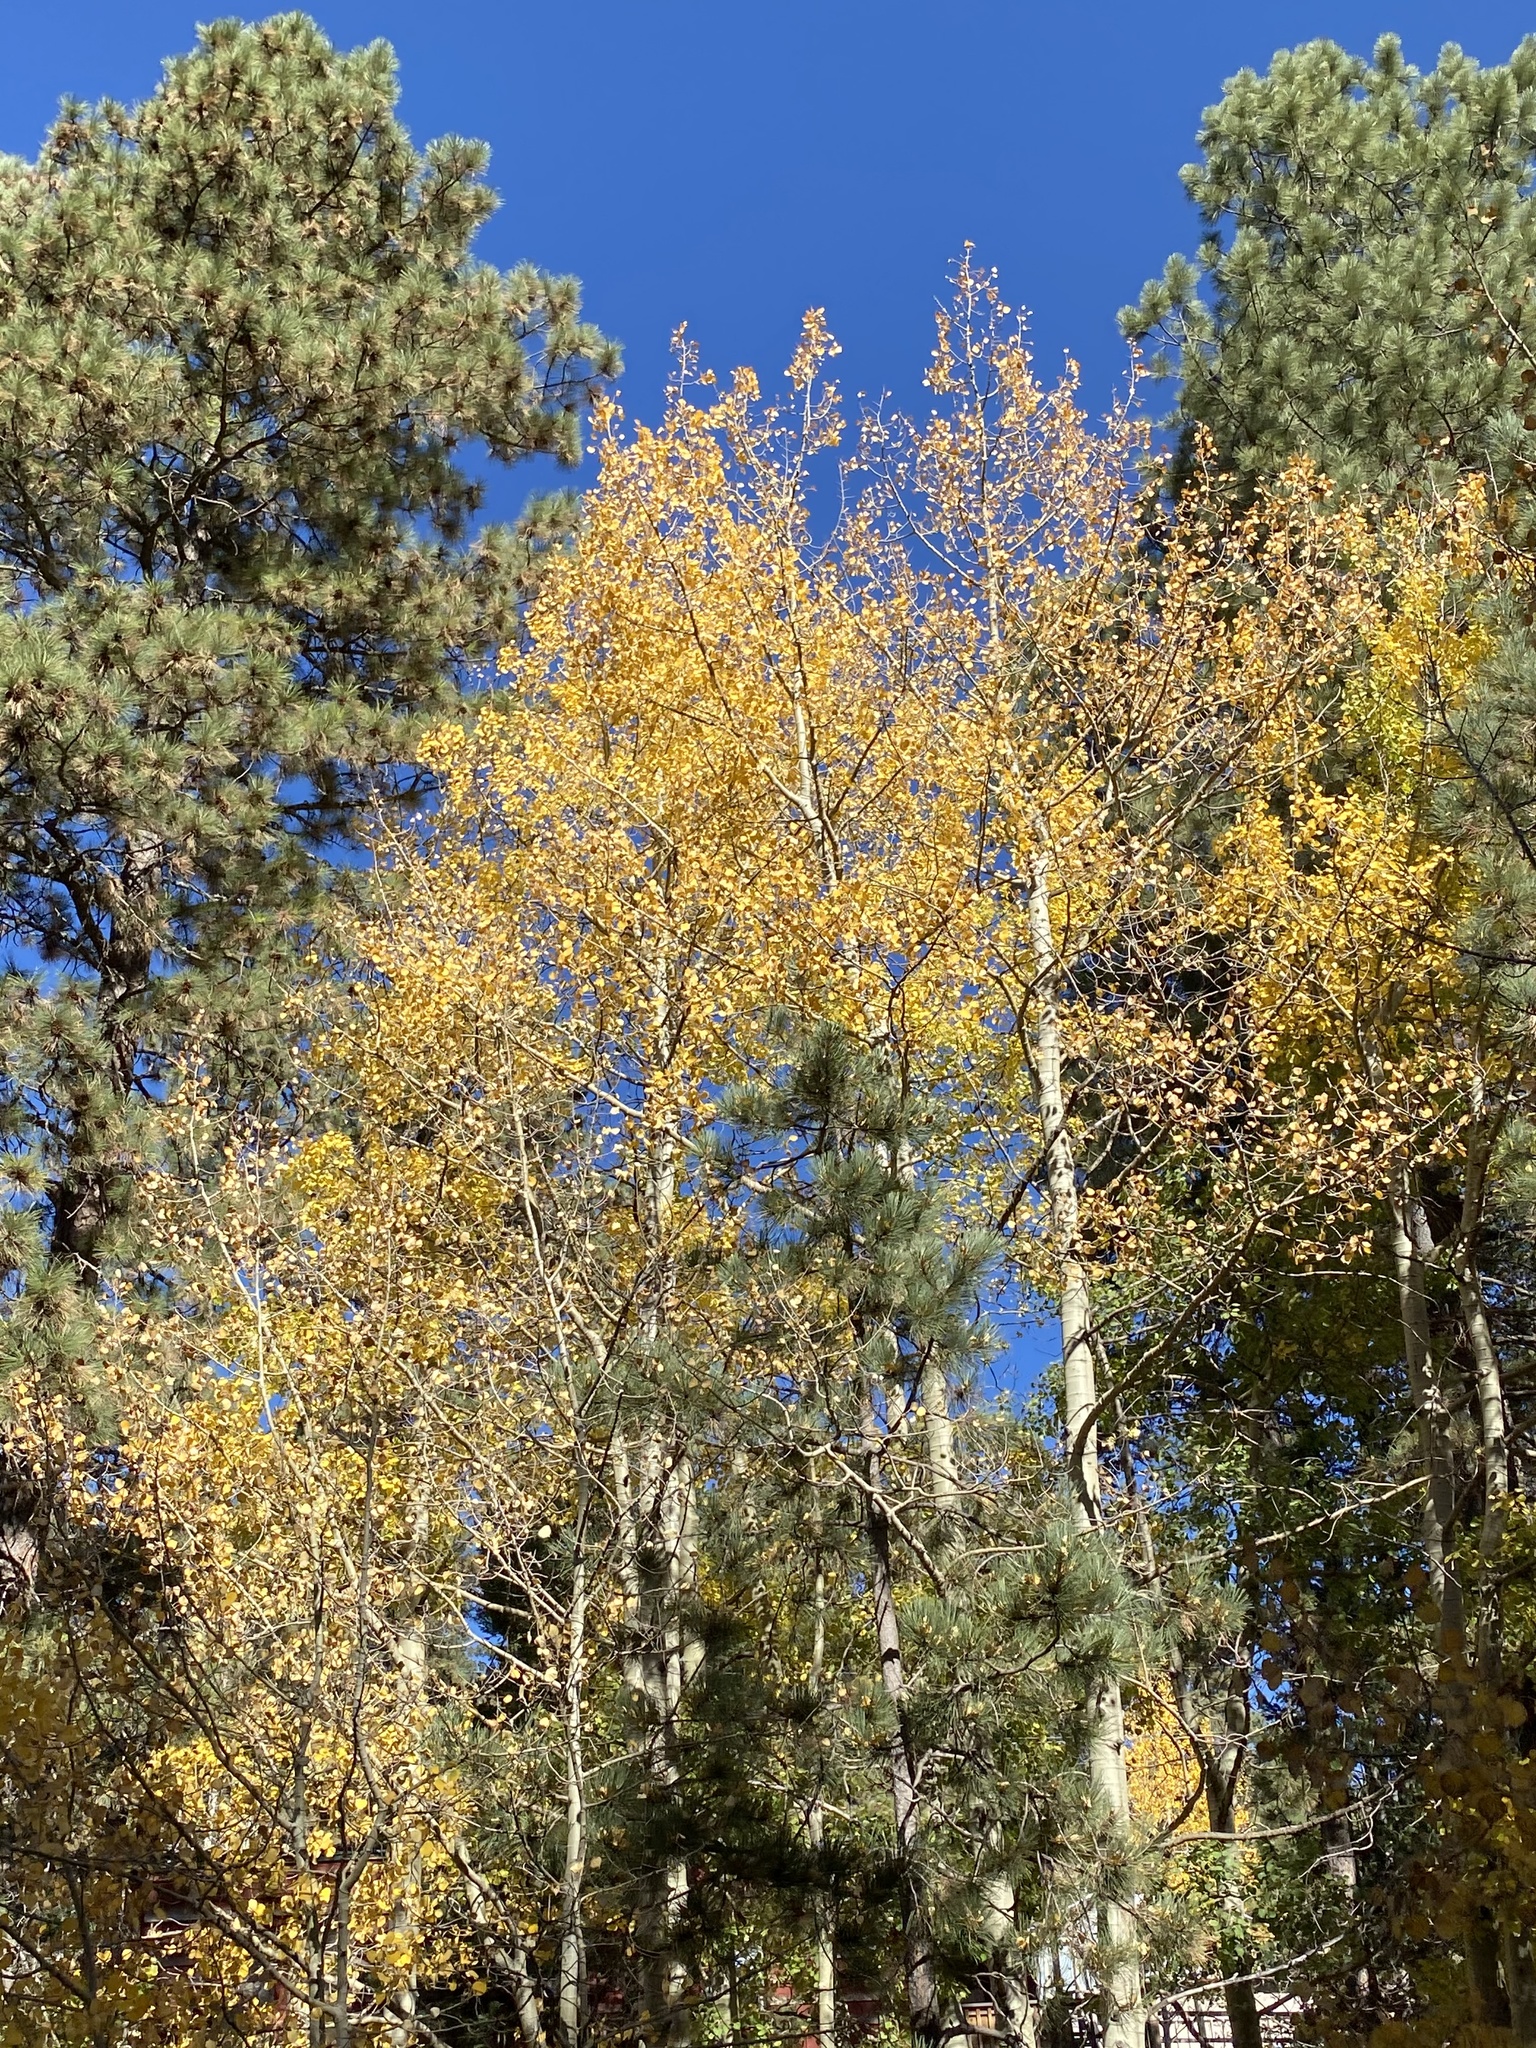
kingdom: Plantae
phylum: Tracheophyta
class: Magnoliopsida
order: Malpighiales
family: Salicaceae
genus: Populus
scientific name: Populus tremuloides
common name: Quaking aspen
